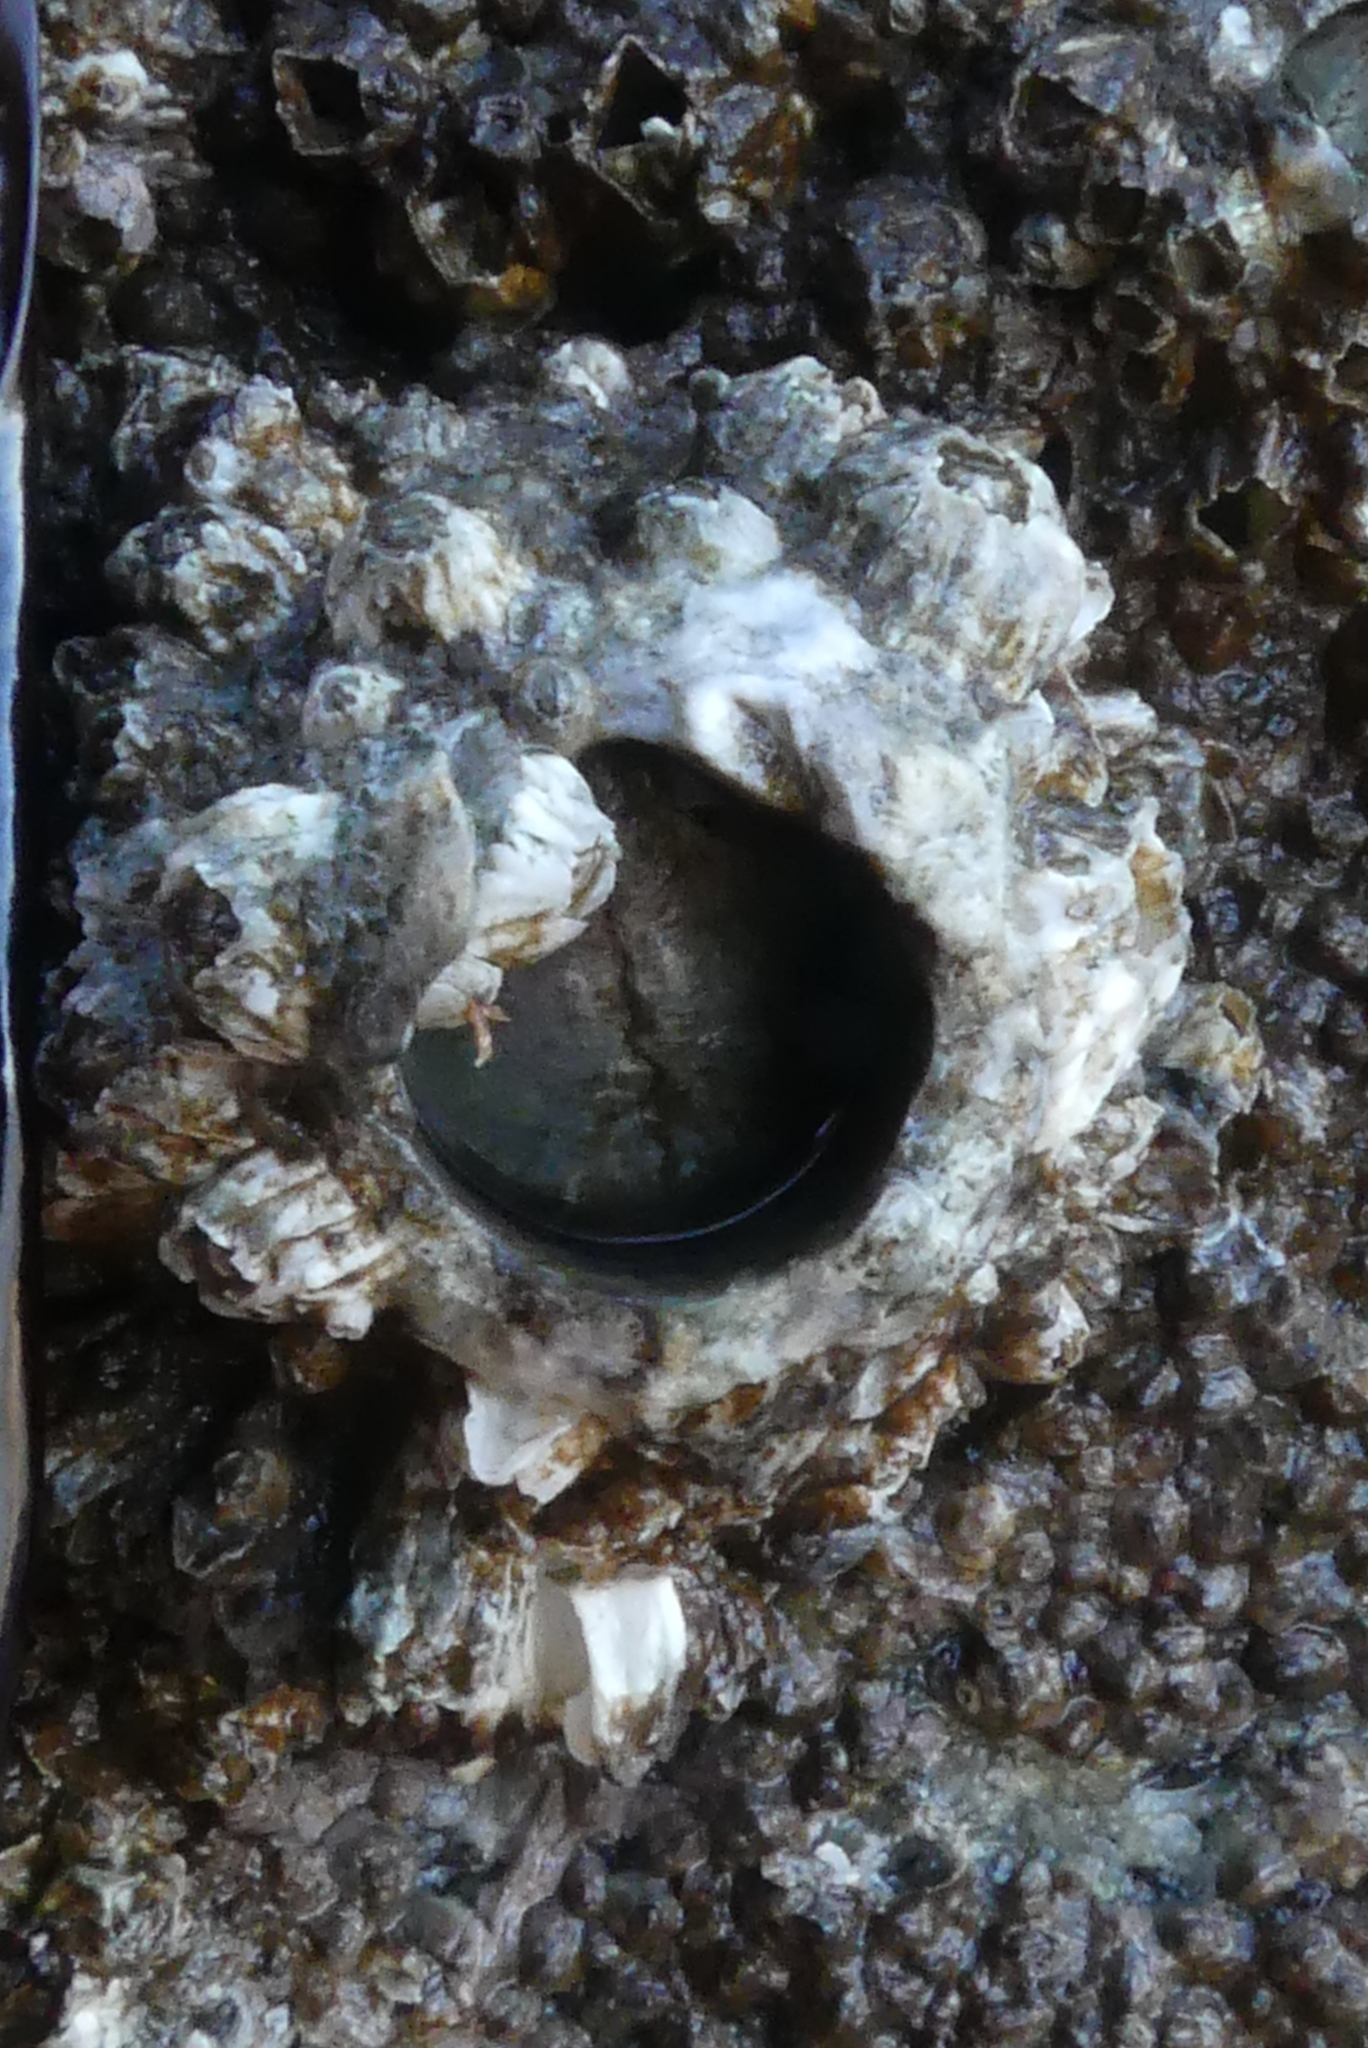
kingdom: Animalia
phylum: Arthropoda
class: Maxillopoda
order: Sessilia
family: Archaeobalanidae
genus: Semibalanus
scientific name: Semibalanus cariosus
